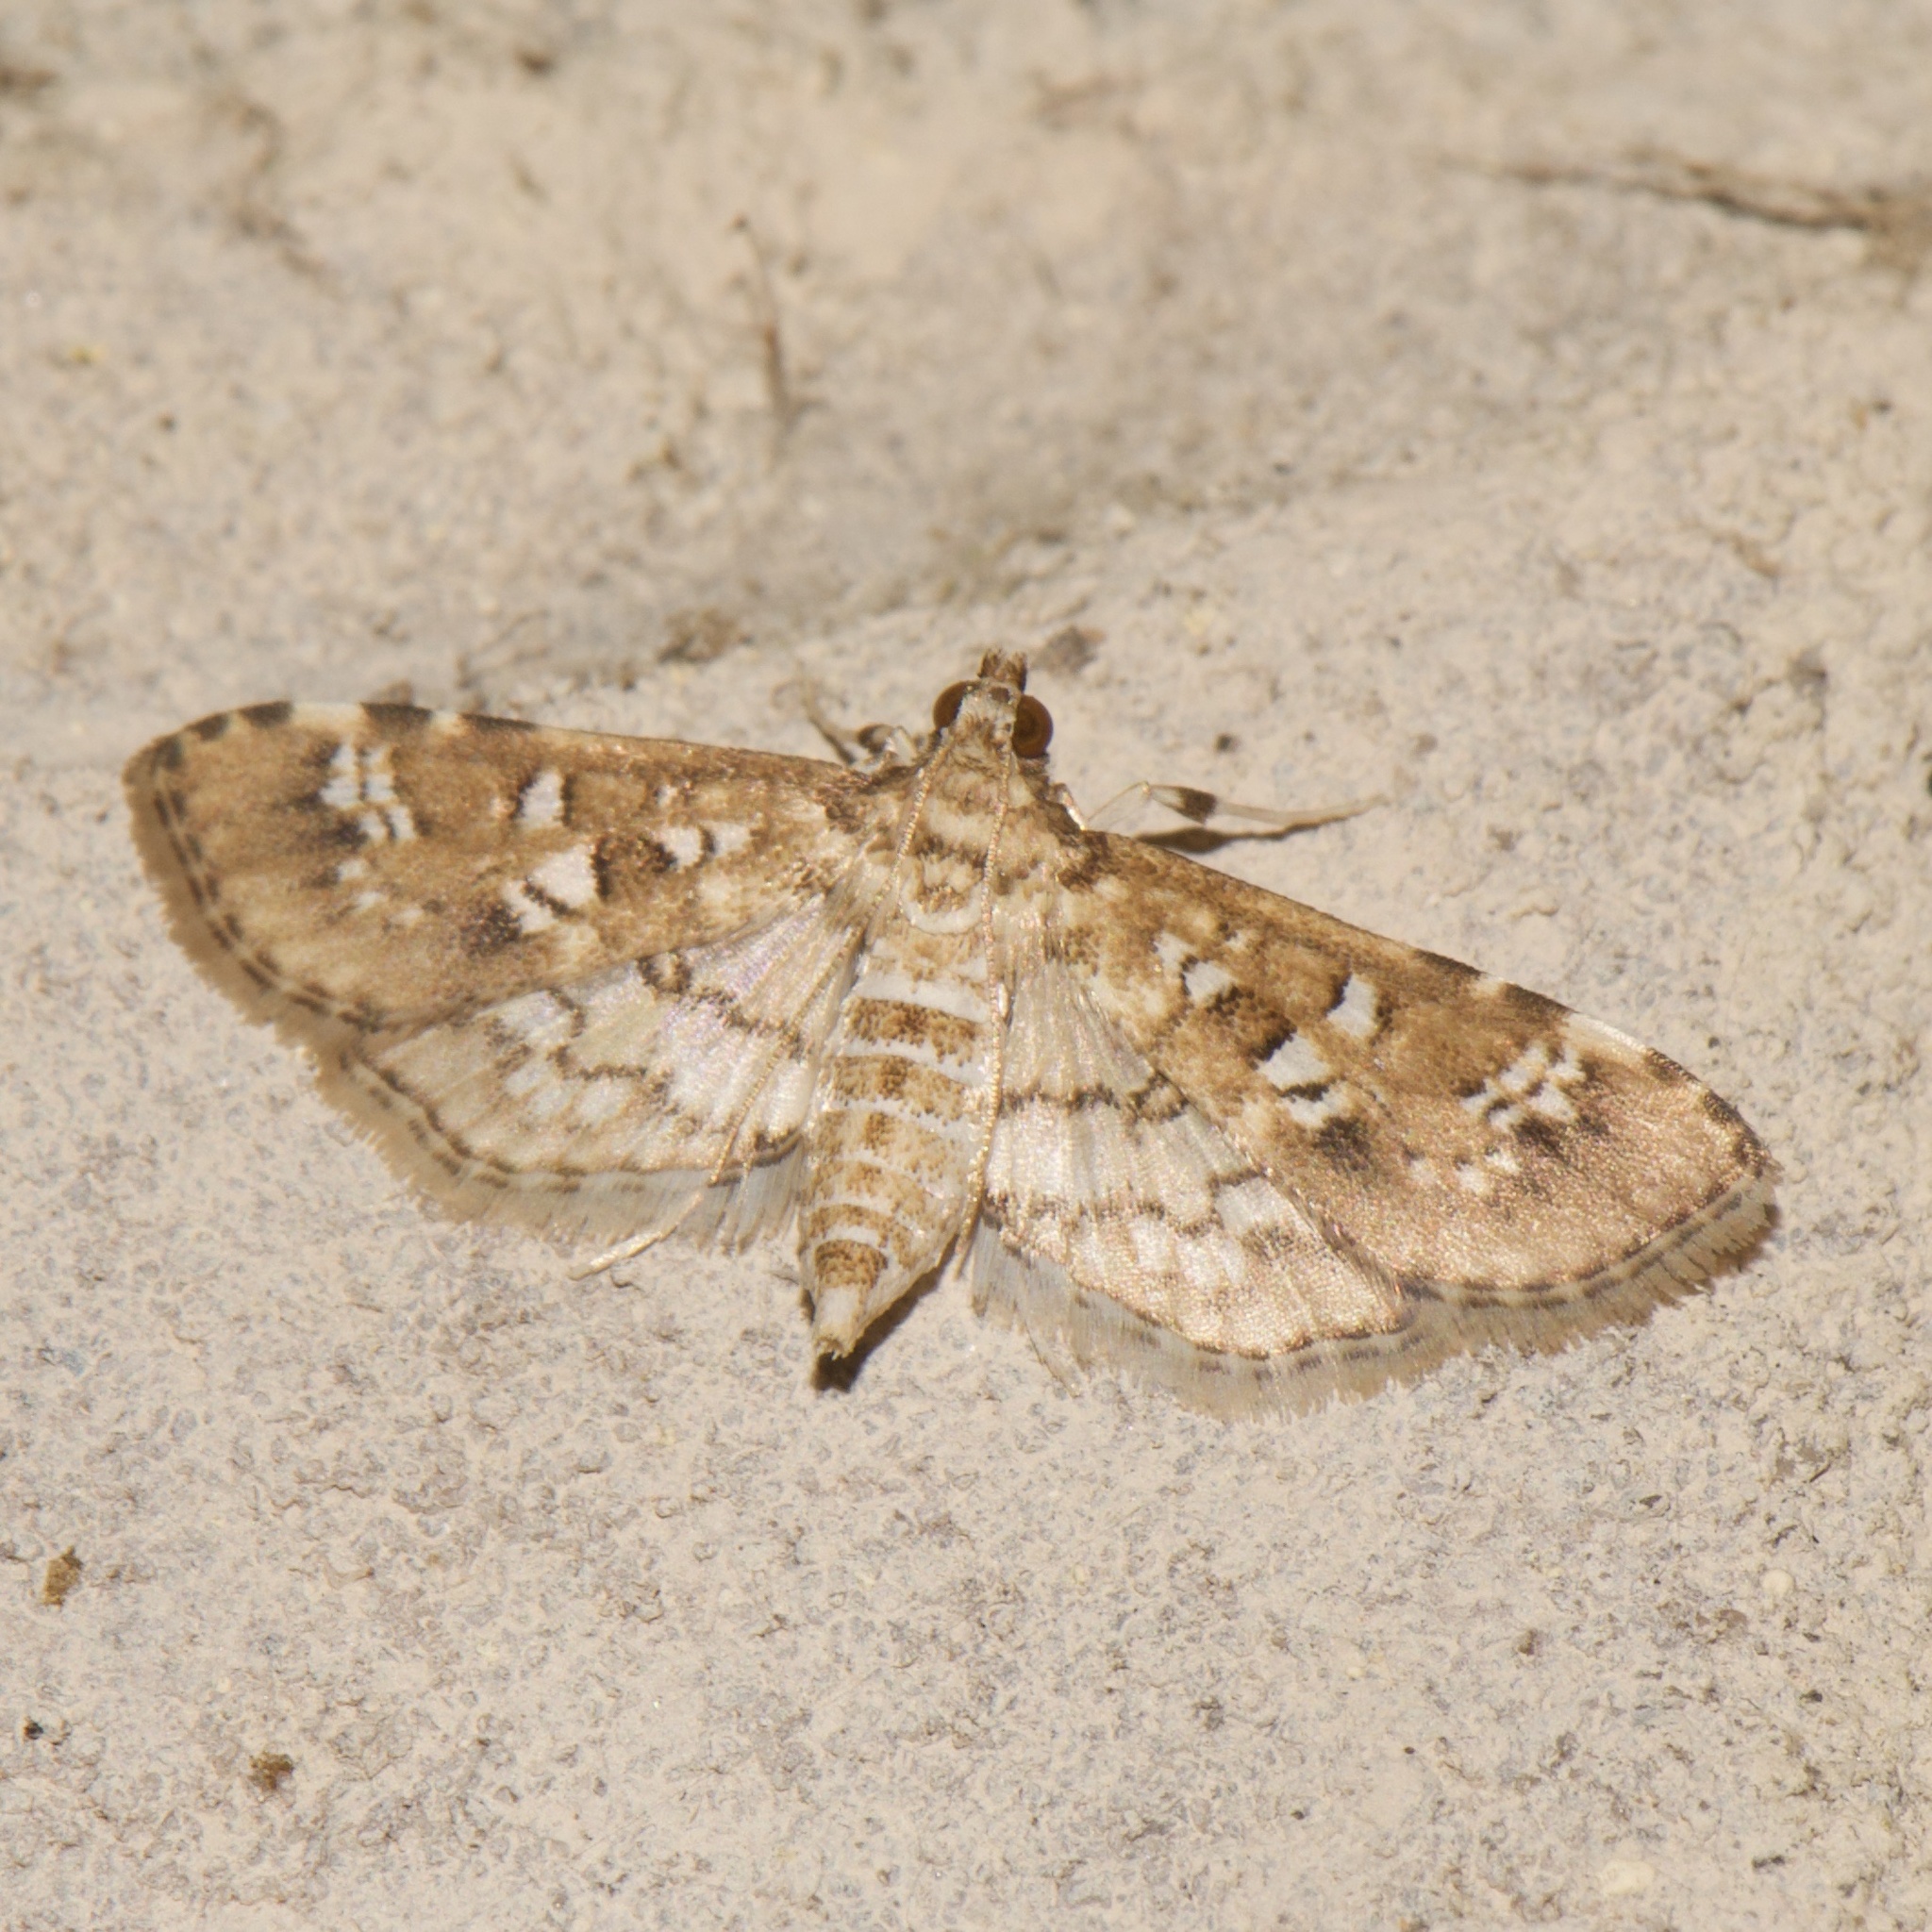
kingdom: Animalia
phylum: Arthropoda
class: Insecta
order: Lepidoptera
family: Crambidae
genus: Samea
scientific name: Samea multiplicalis
